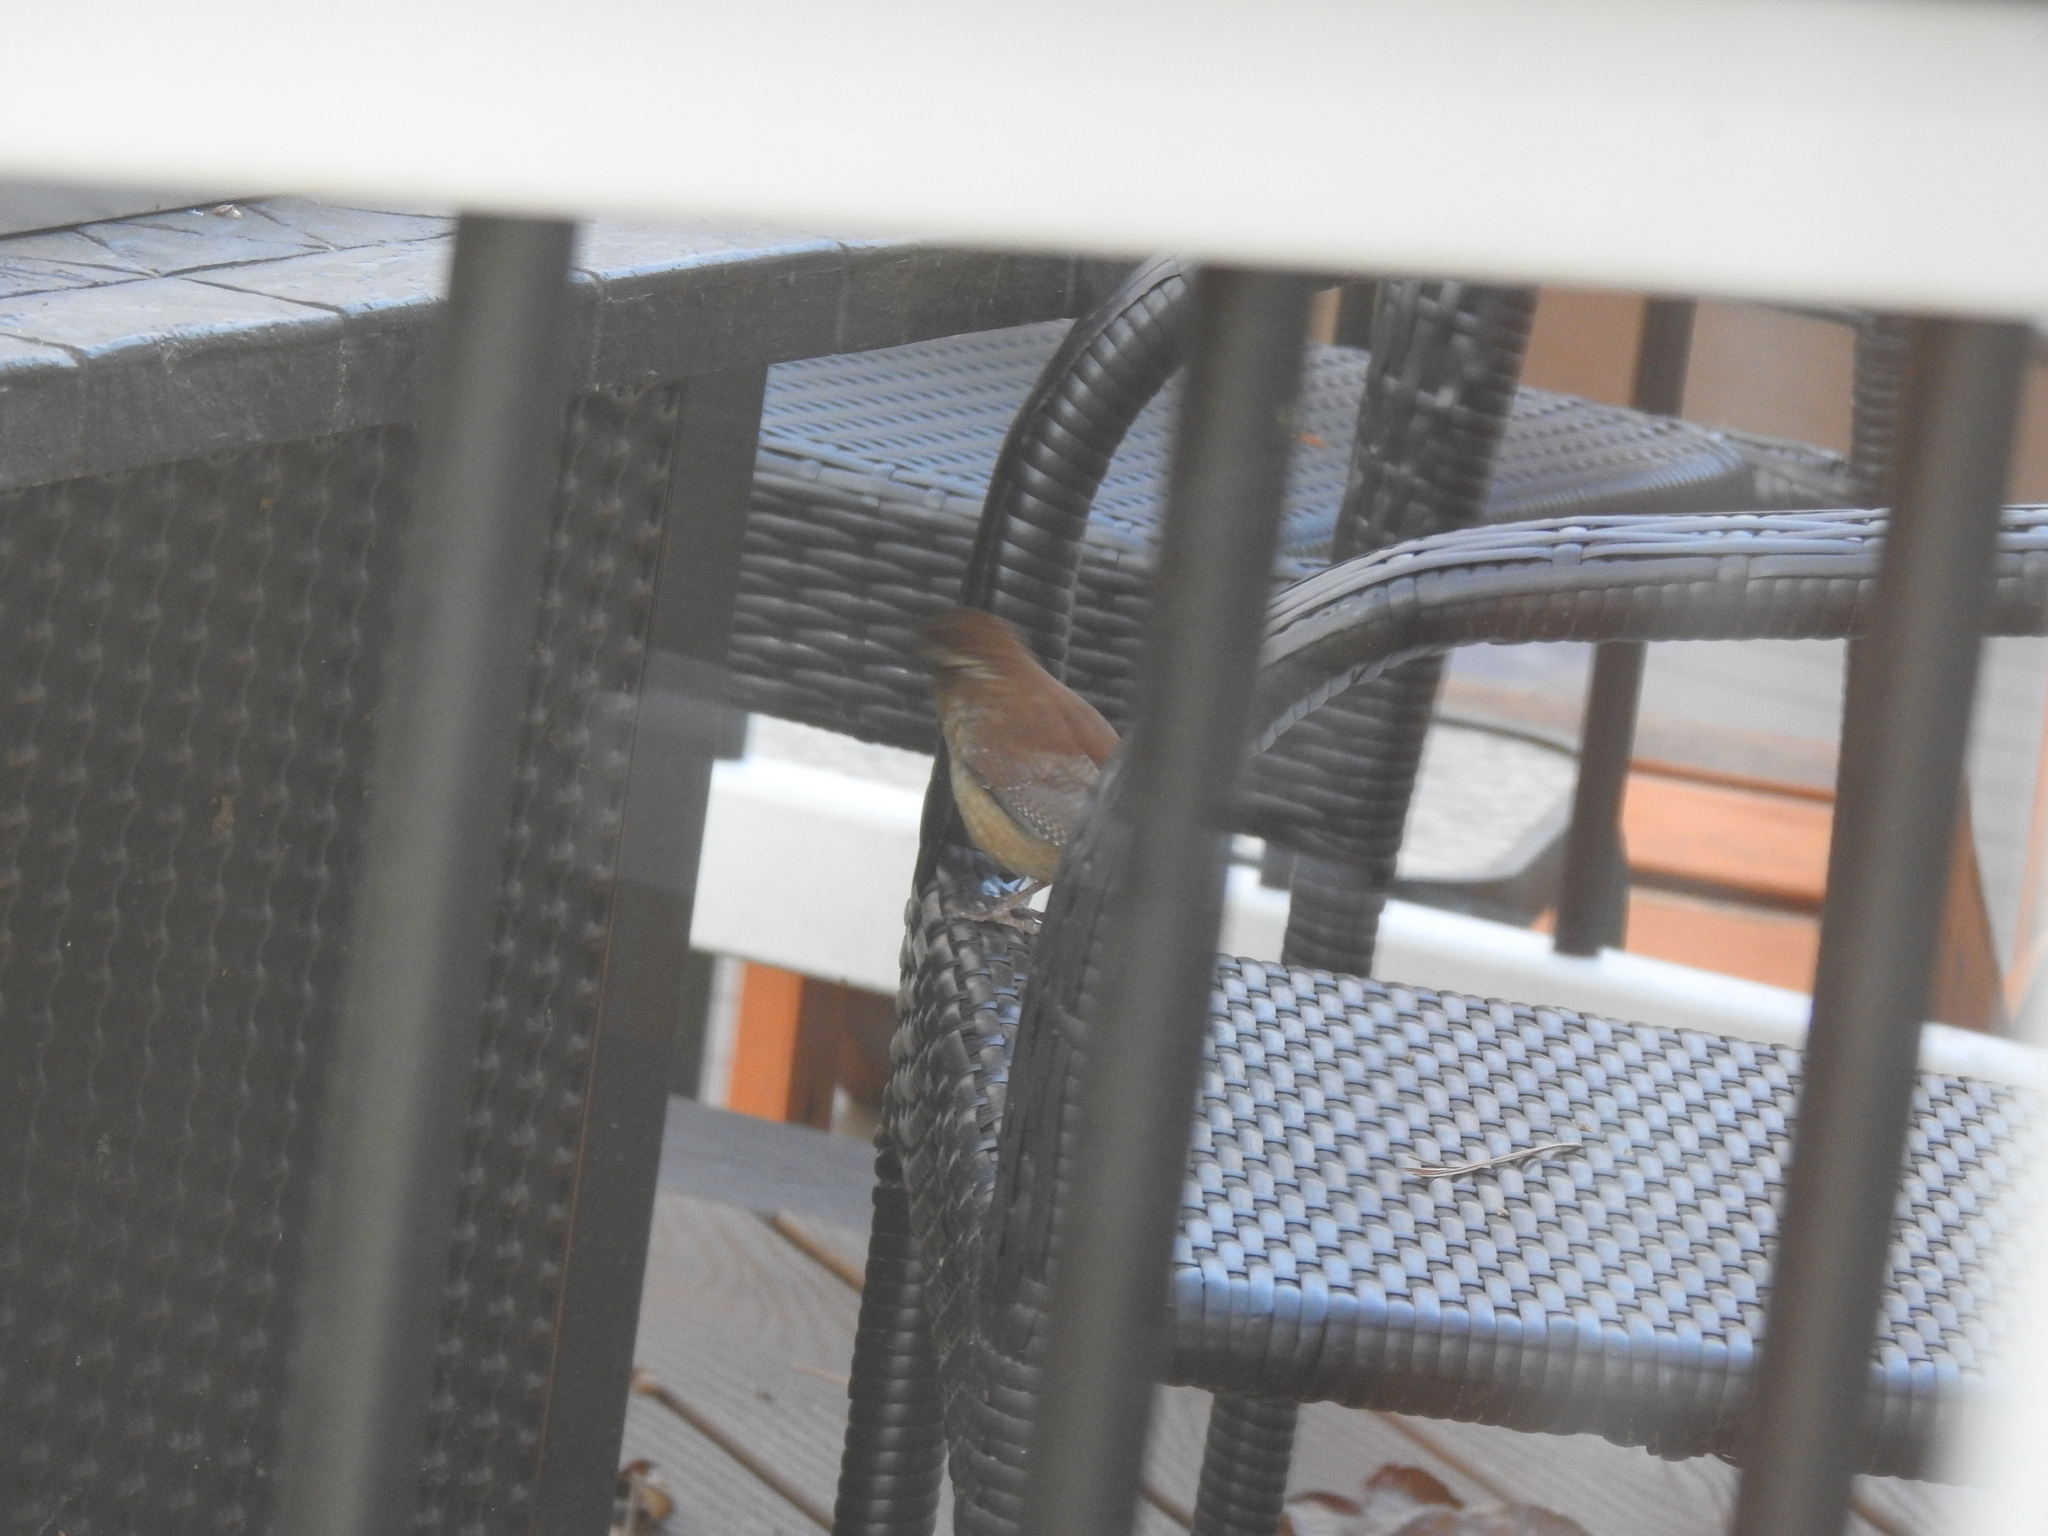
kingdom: Animalia
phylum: Chordata
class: Aves
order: Passeriformes
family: Troglodytidae
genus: Thryothorus
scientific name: Thryothorus ludovicianus
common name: Carolina wren
